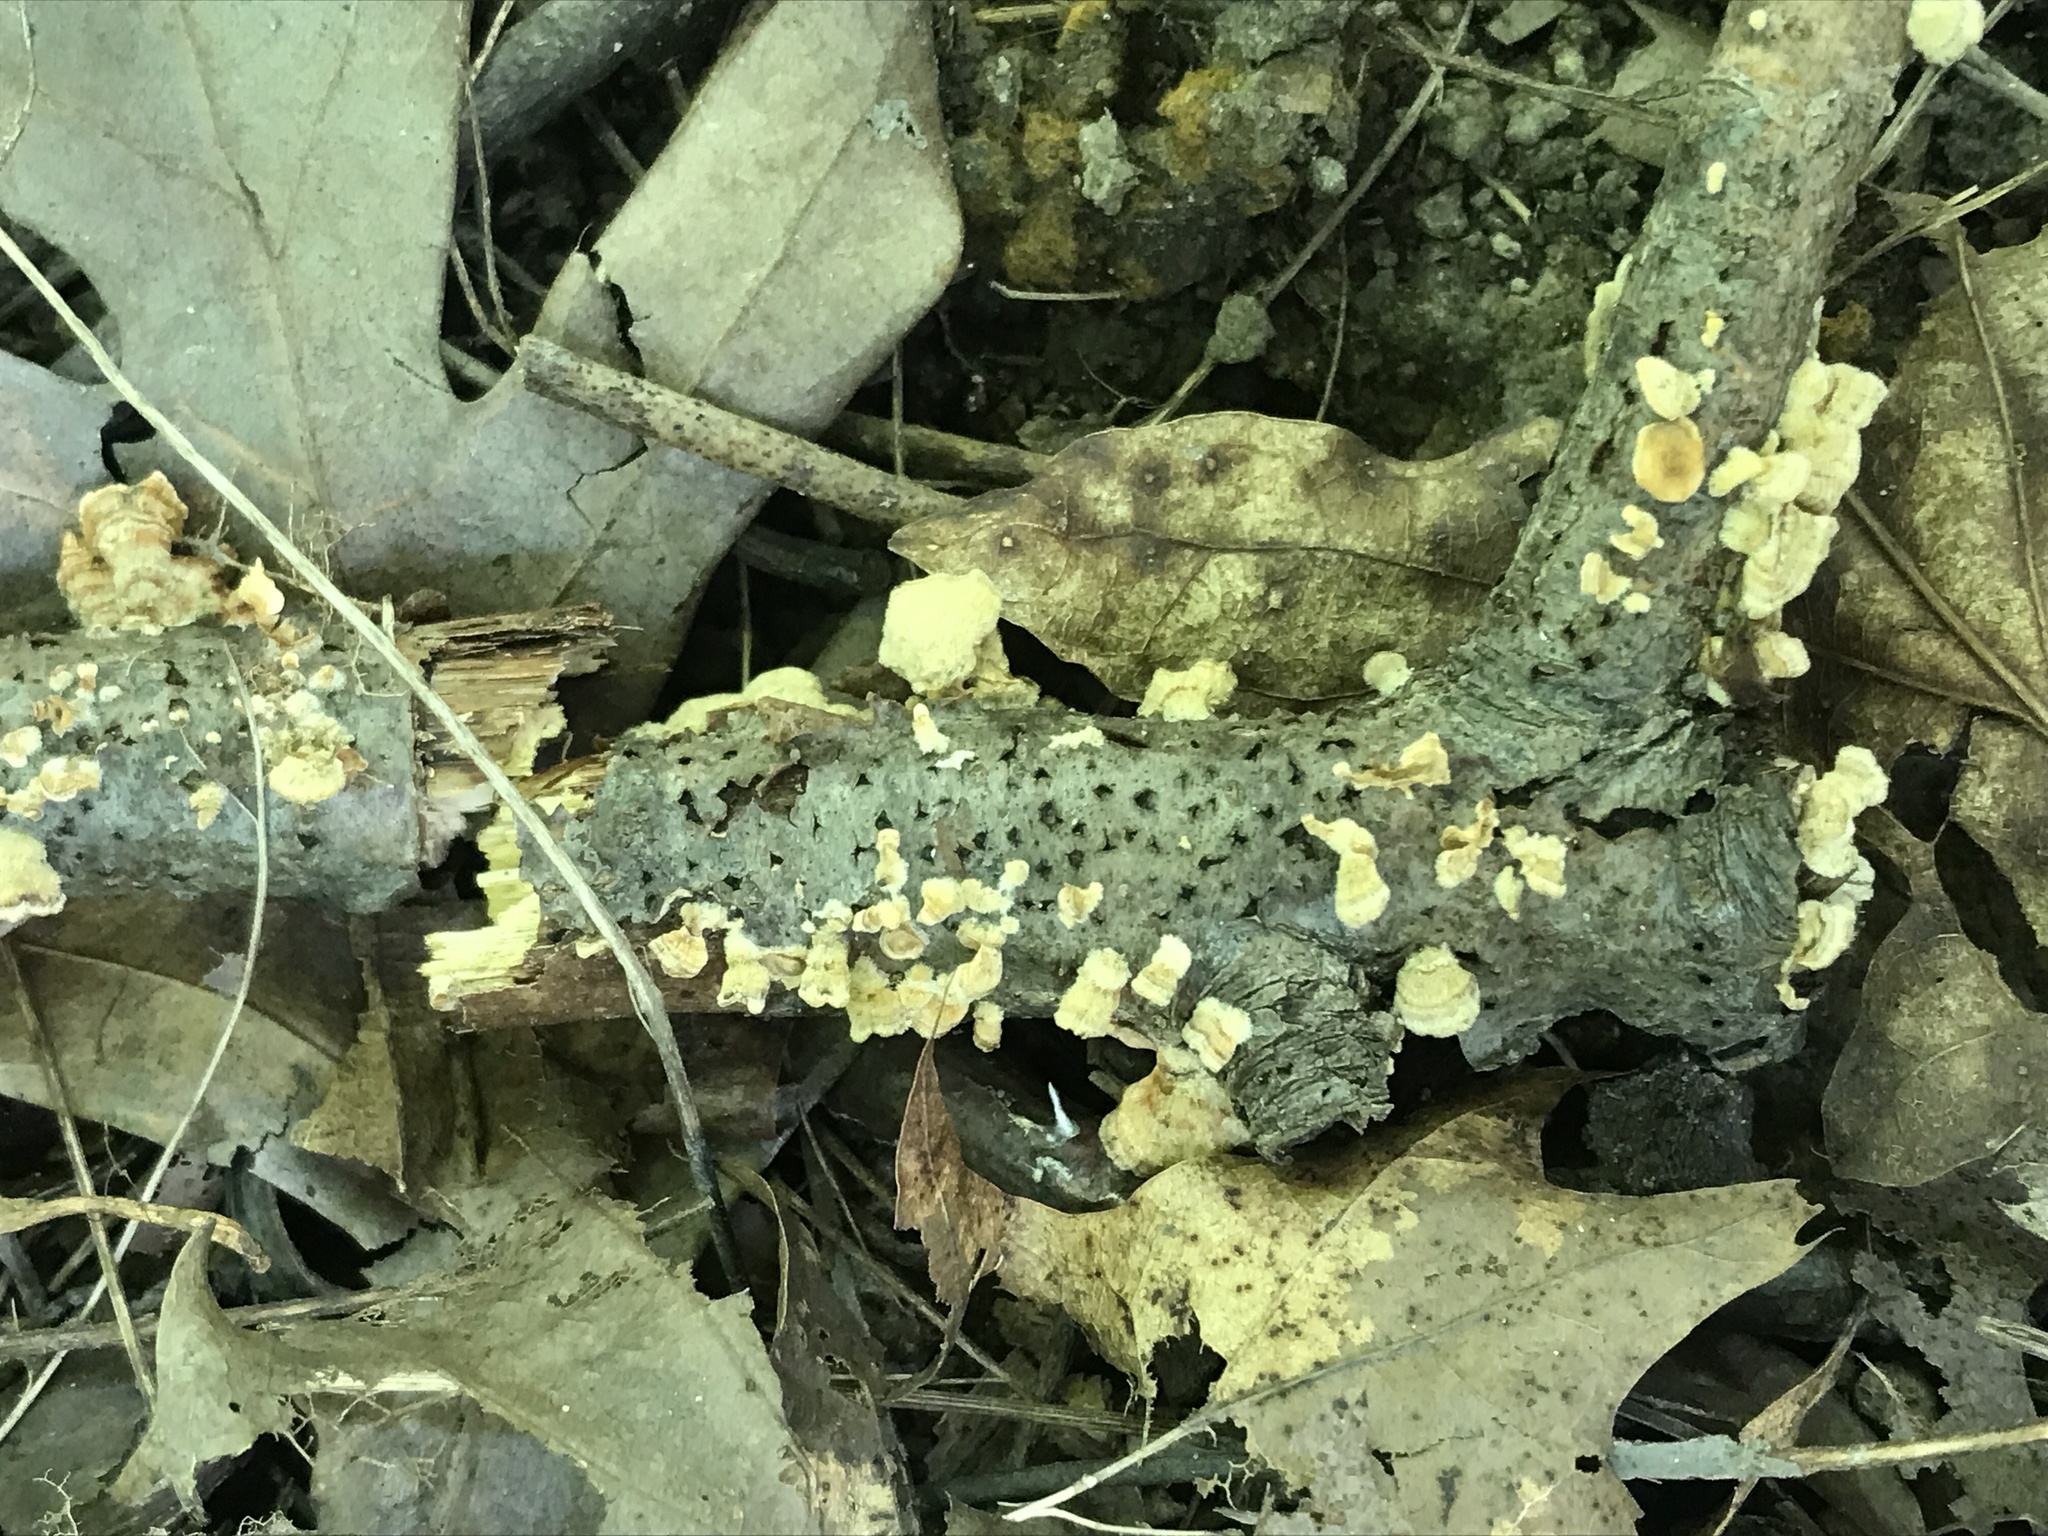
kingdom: Fungi
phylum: Basidiomycota
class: Agaricomycetes
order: Russulales
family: Stereaceae
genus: Stereum
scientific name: Stereum complicatum
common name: Crowded parchment
